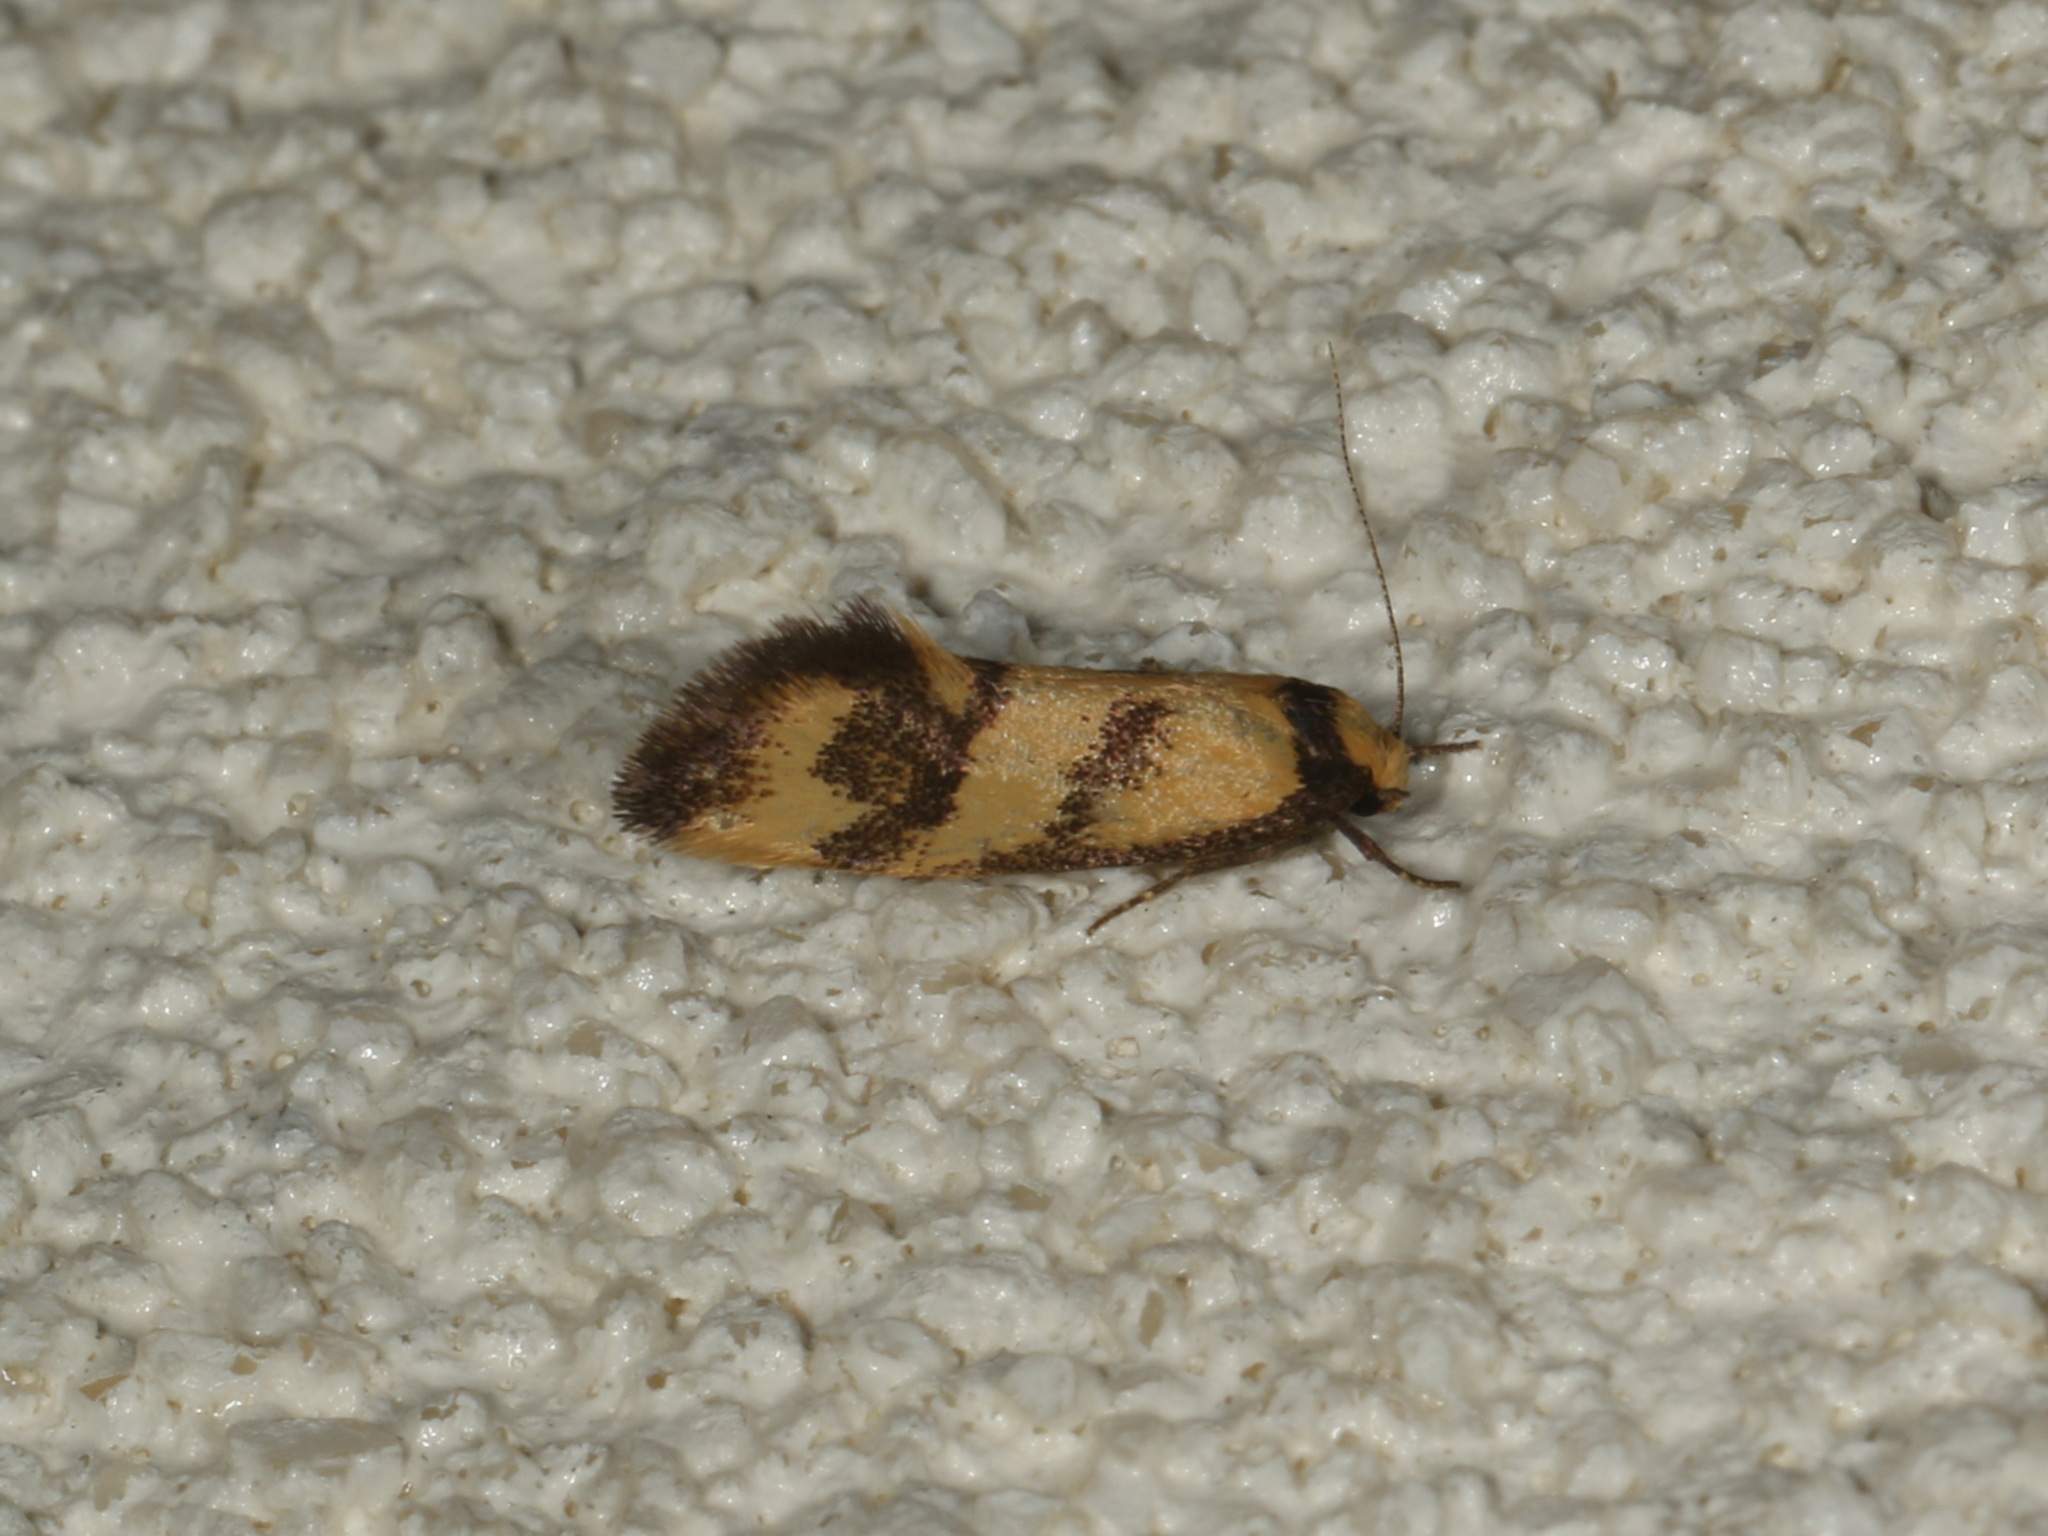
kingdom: Animalia
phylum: Arthropoda
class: Insecta
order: Lepidoptera
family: Oecophoridae
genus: Olbonoma
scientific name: Olbonoma triptycha
